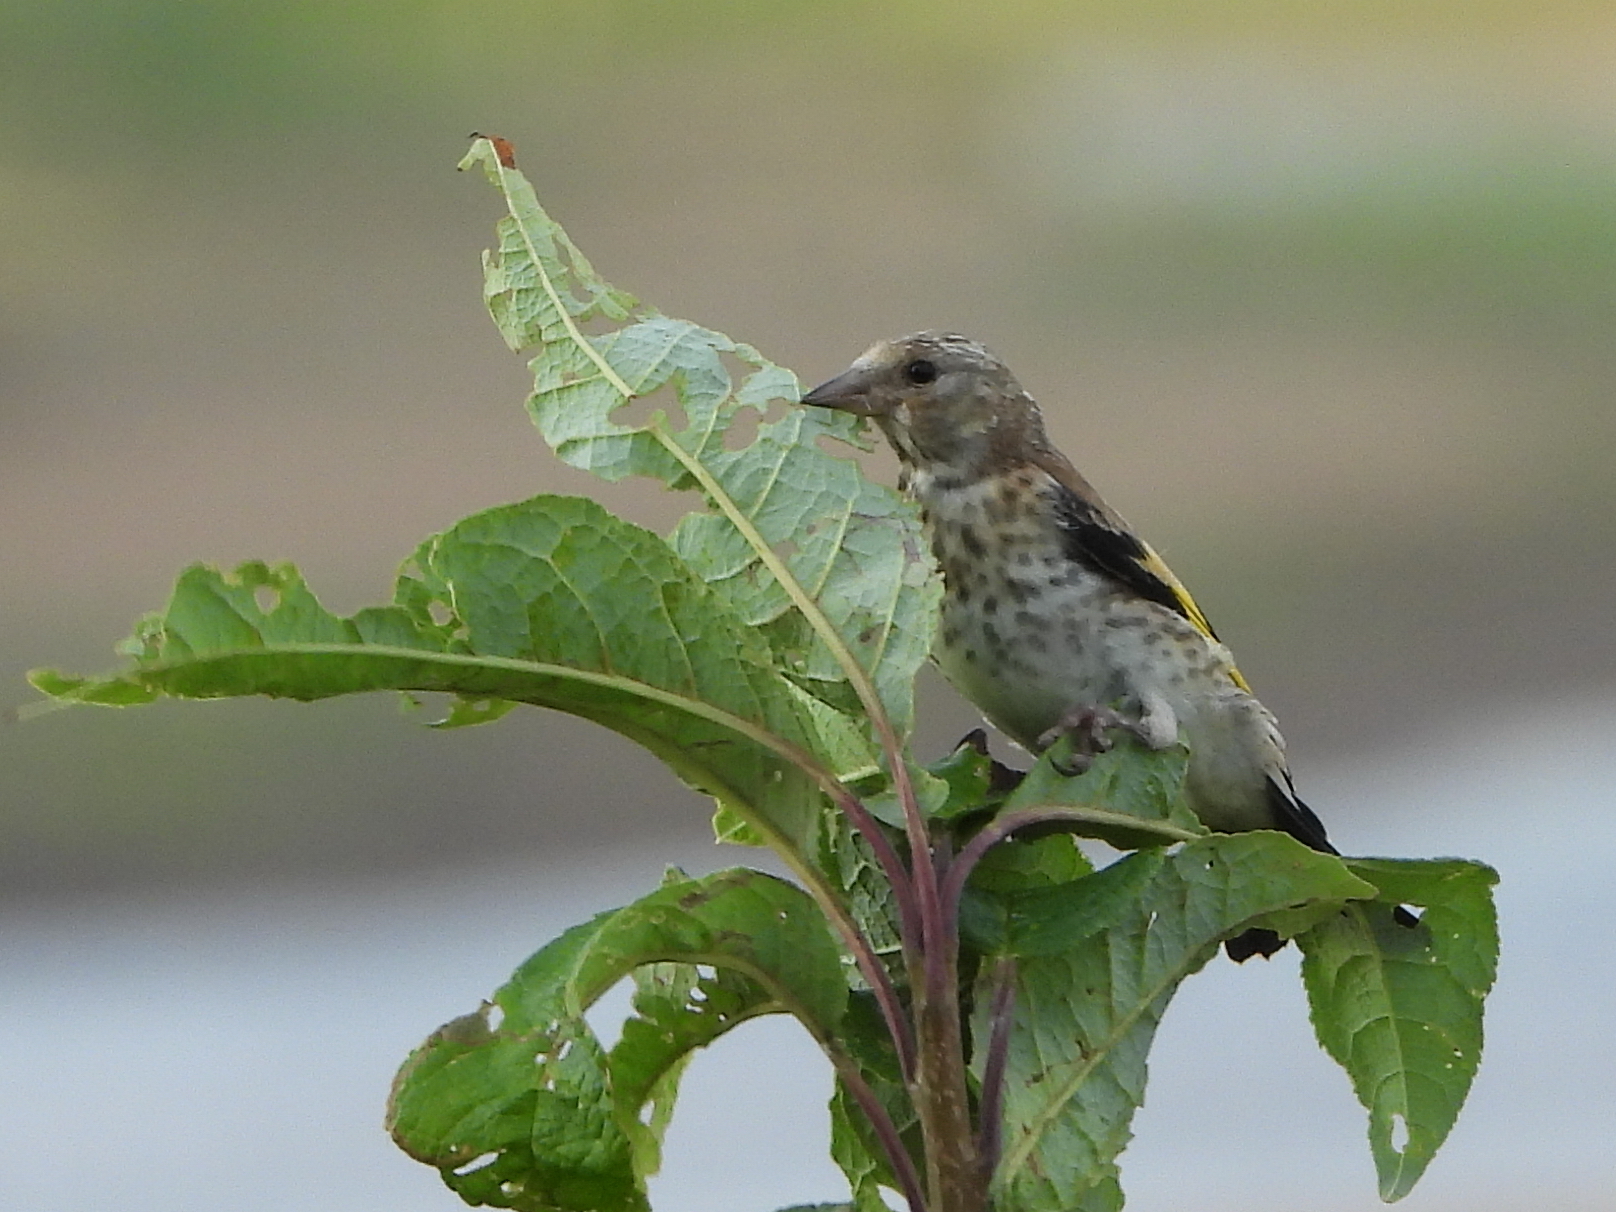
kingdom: Animalia
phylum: Chordata
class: Aves
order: Passeriformes
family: Fringillidae
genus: Carduelis
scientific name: Carduelis carduelis
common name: European goldfinch
